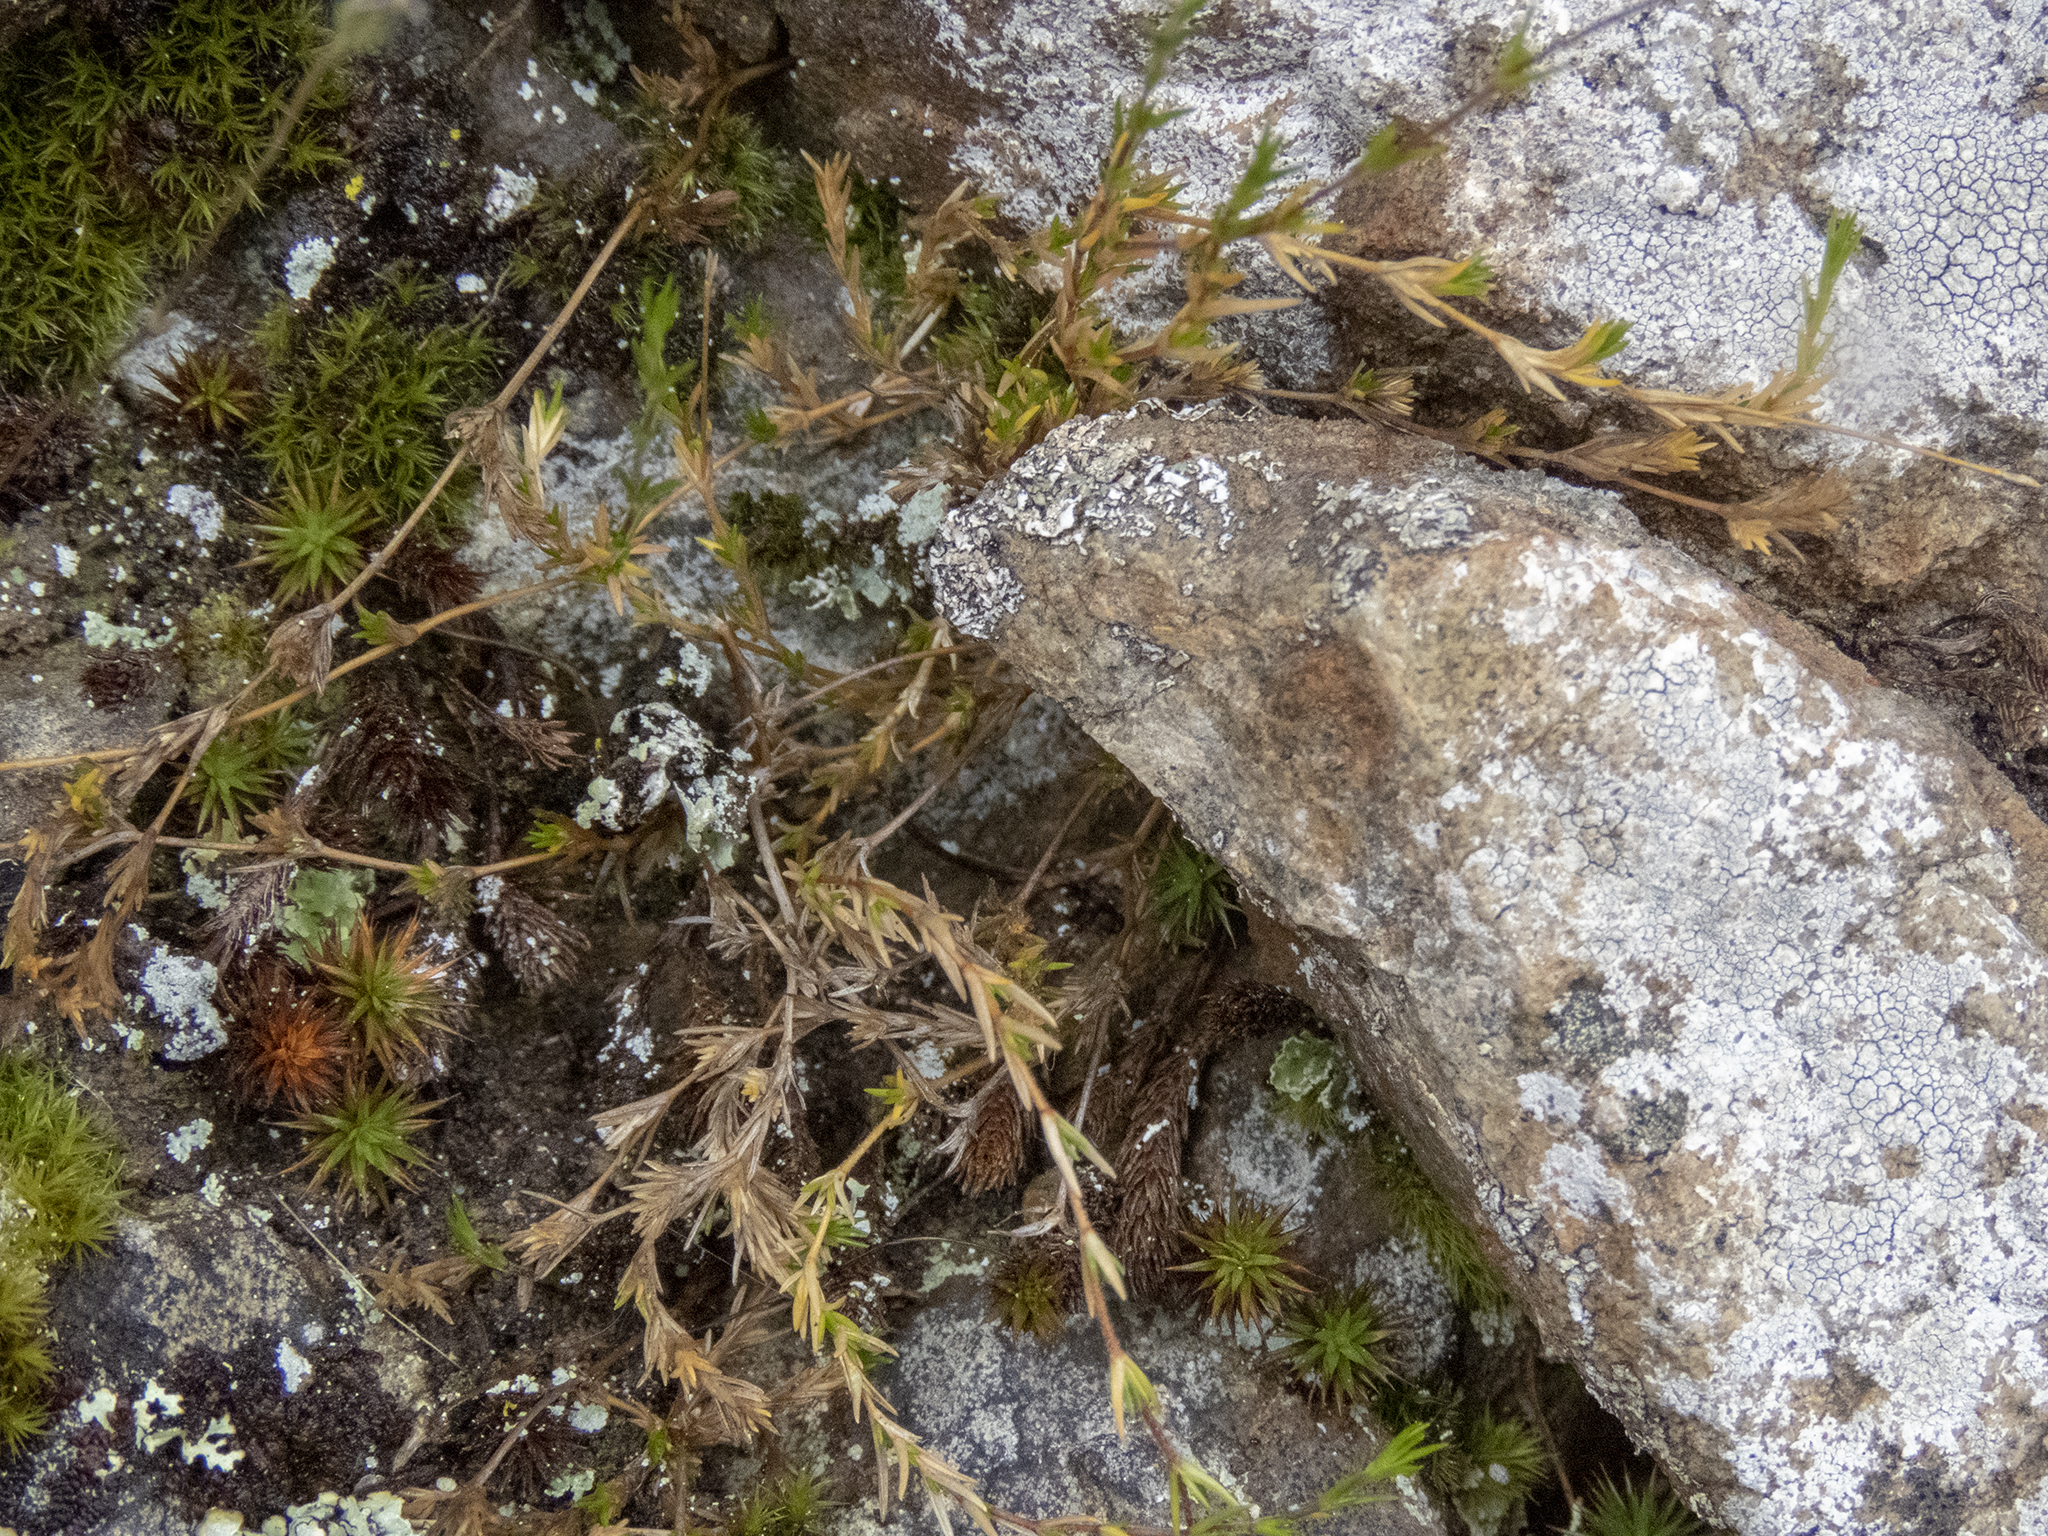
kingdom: Plantae
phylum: Tracheophyta
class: Magnoliopsida
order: Caryophyllales
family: Caryophyllaceae
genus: Stellaria
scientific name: Stellaria gracilenta
